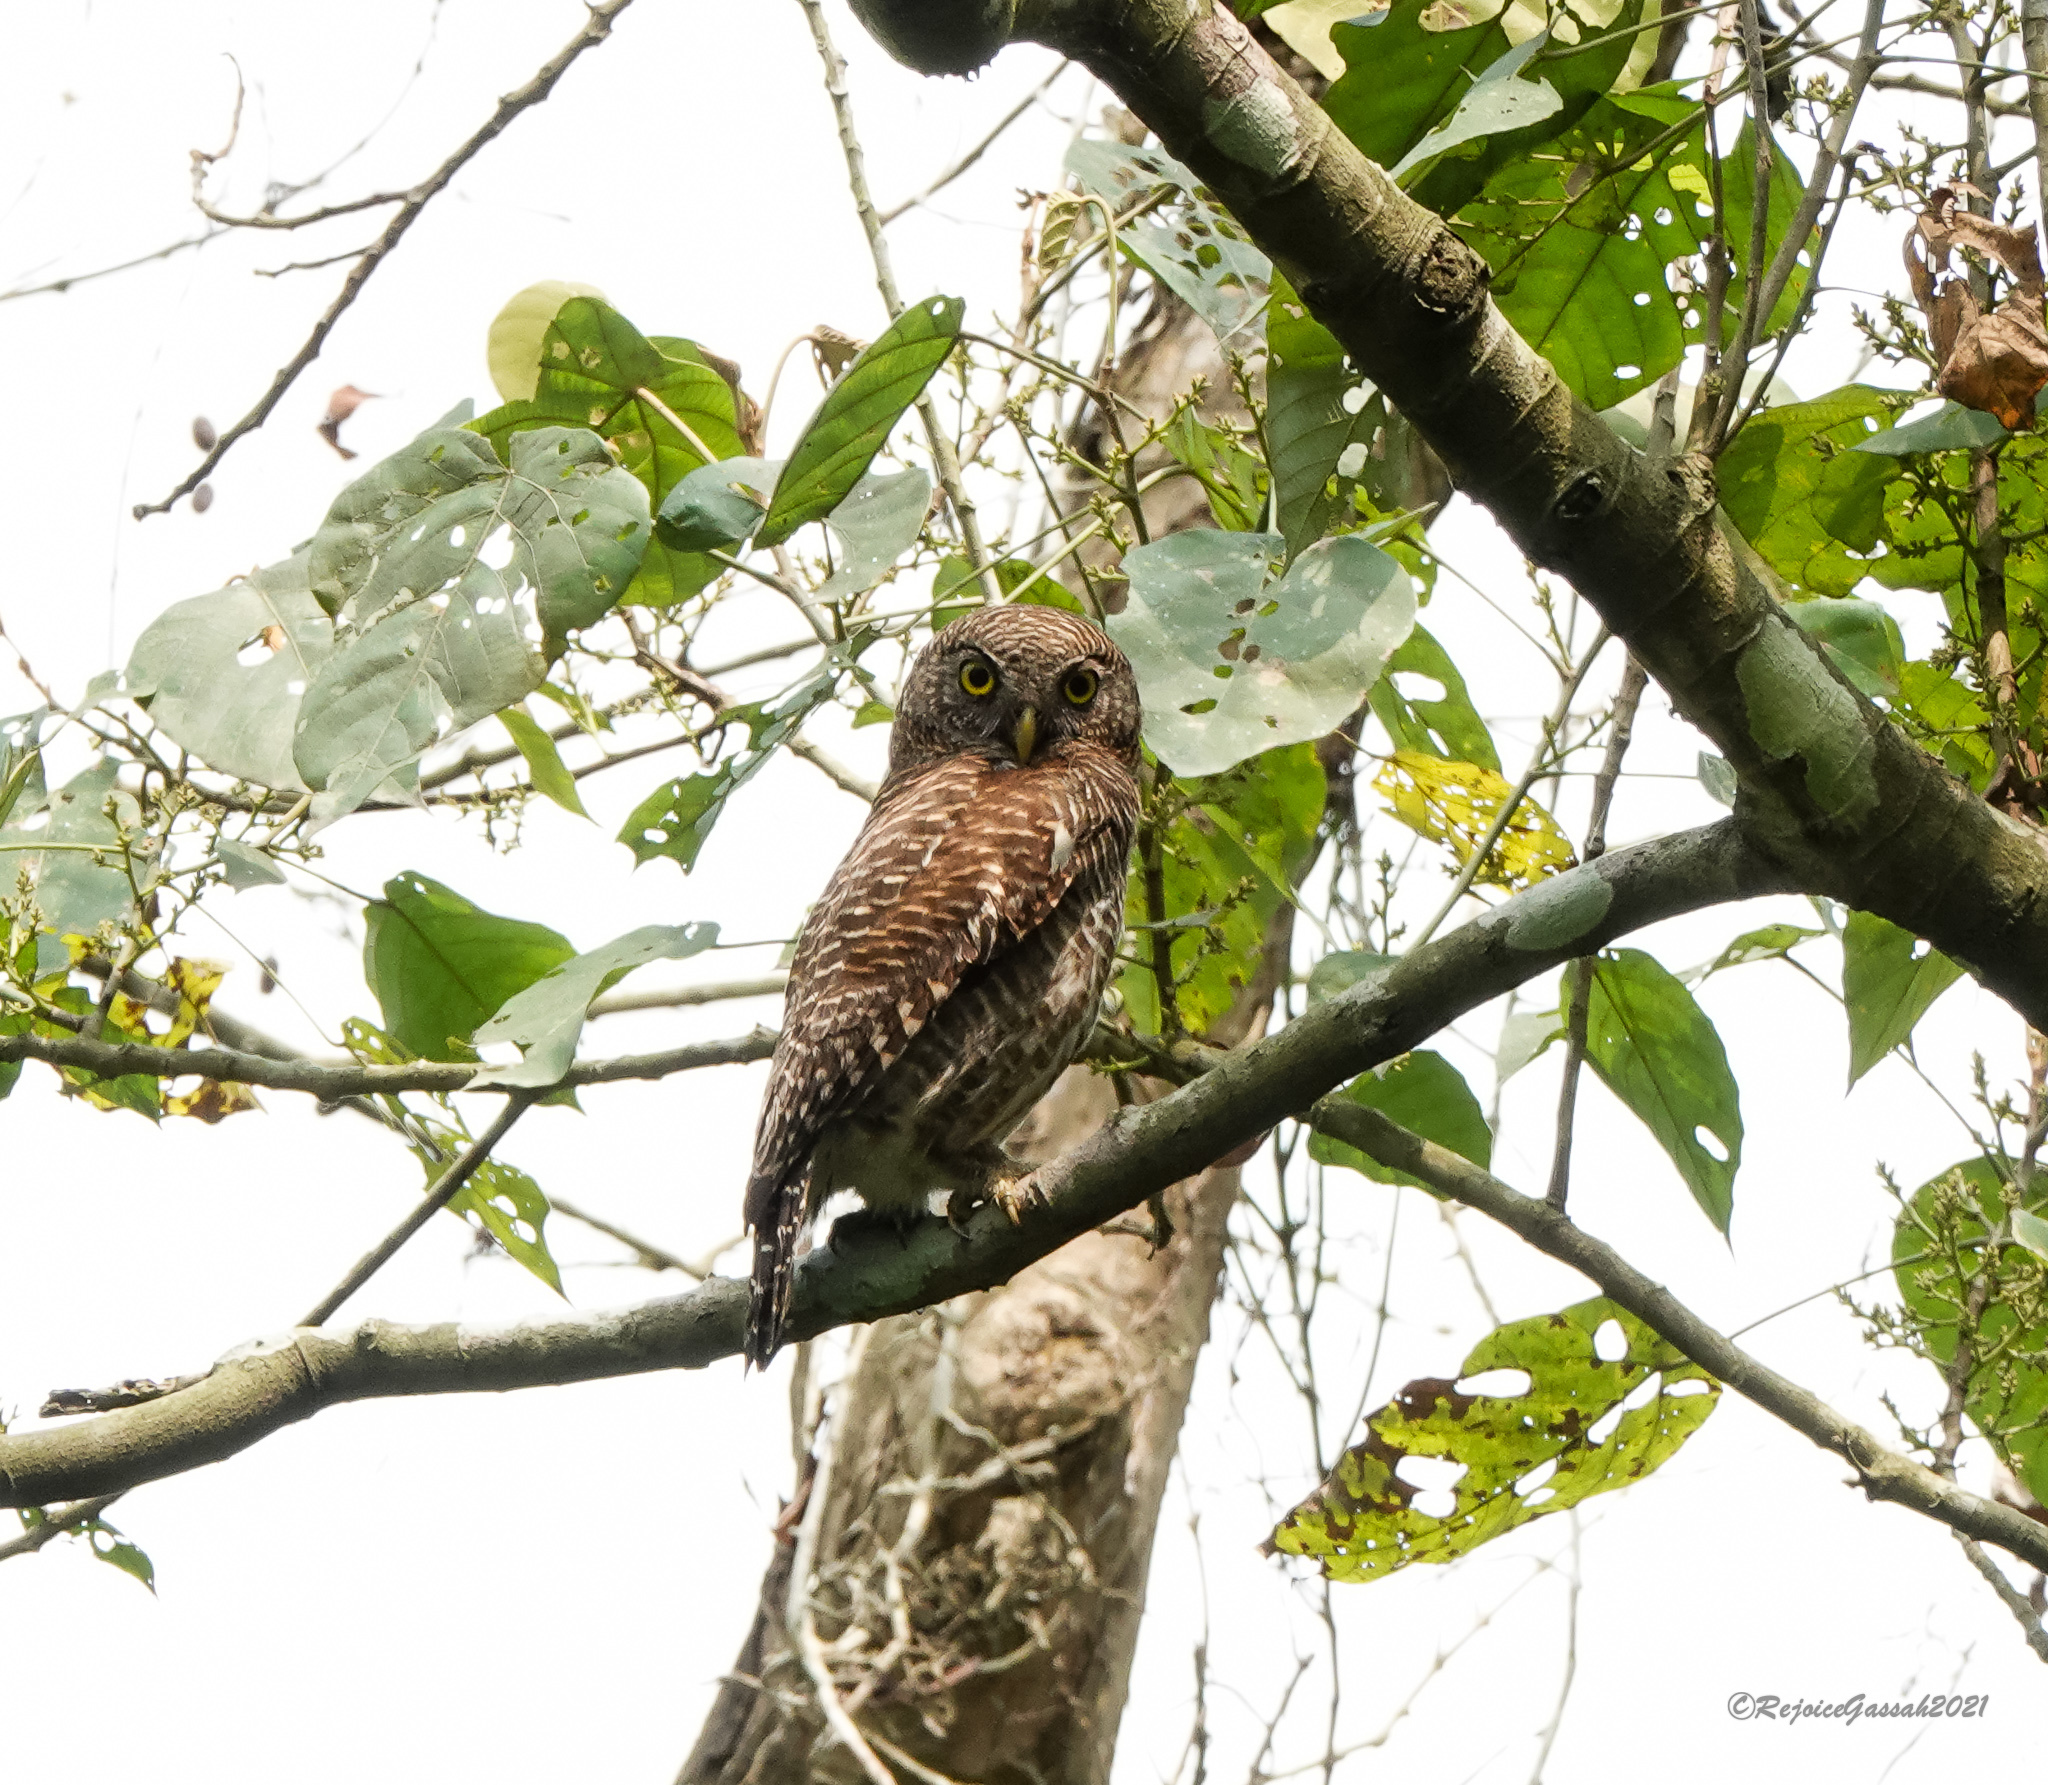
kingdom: Animalia
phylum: Chordata
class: Aves
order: Strigiformes
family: Strigidae
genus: Glaucidium
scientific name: Glaucidium cuculoides
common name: Asian barred owlet
